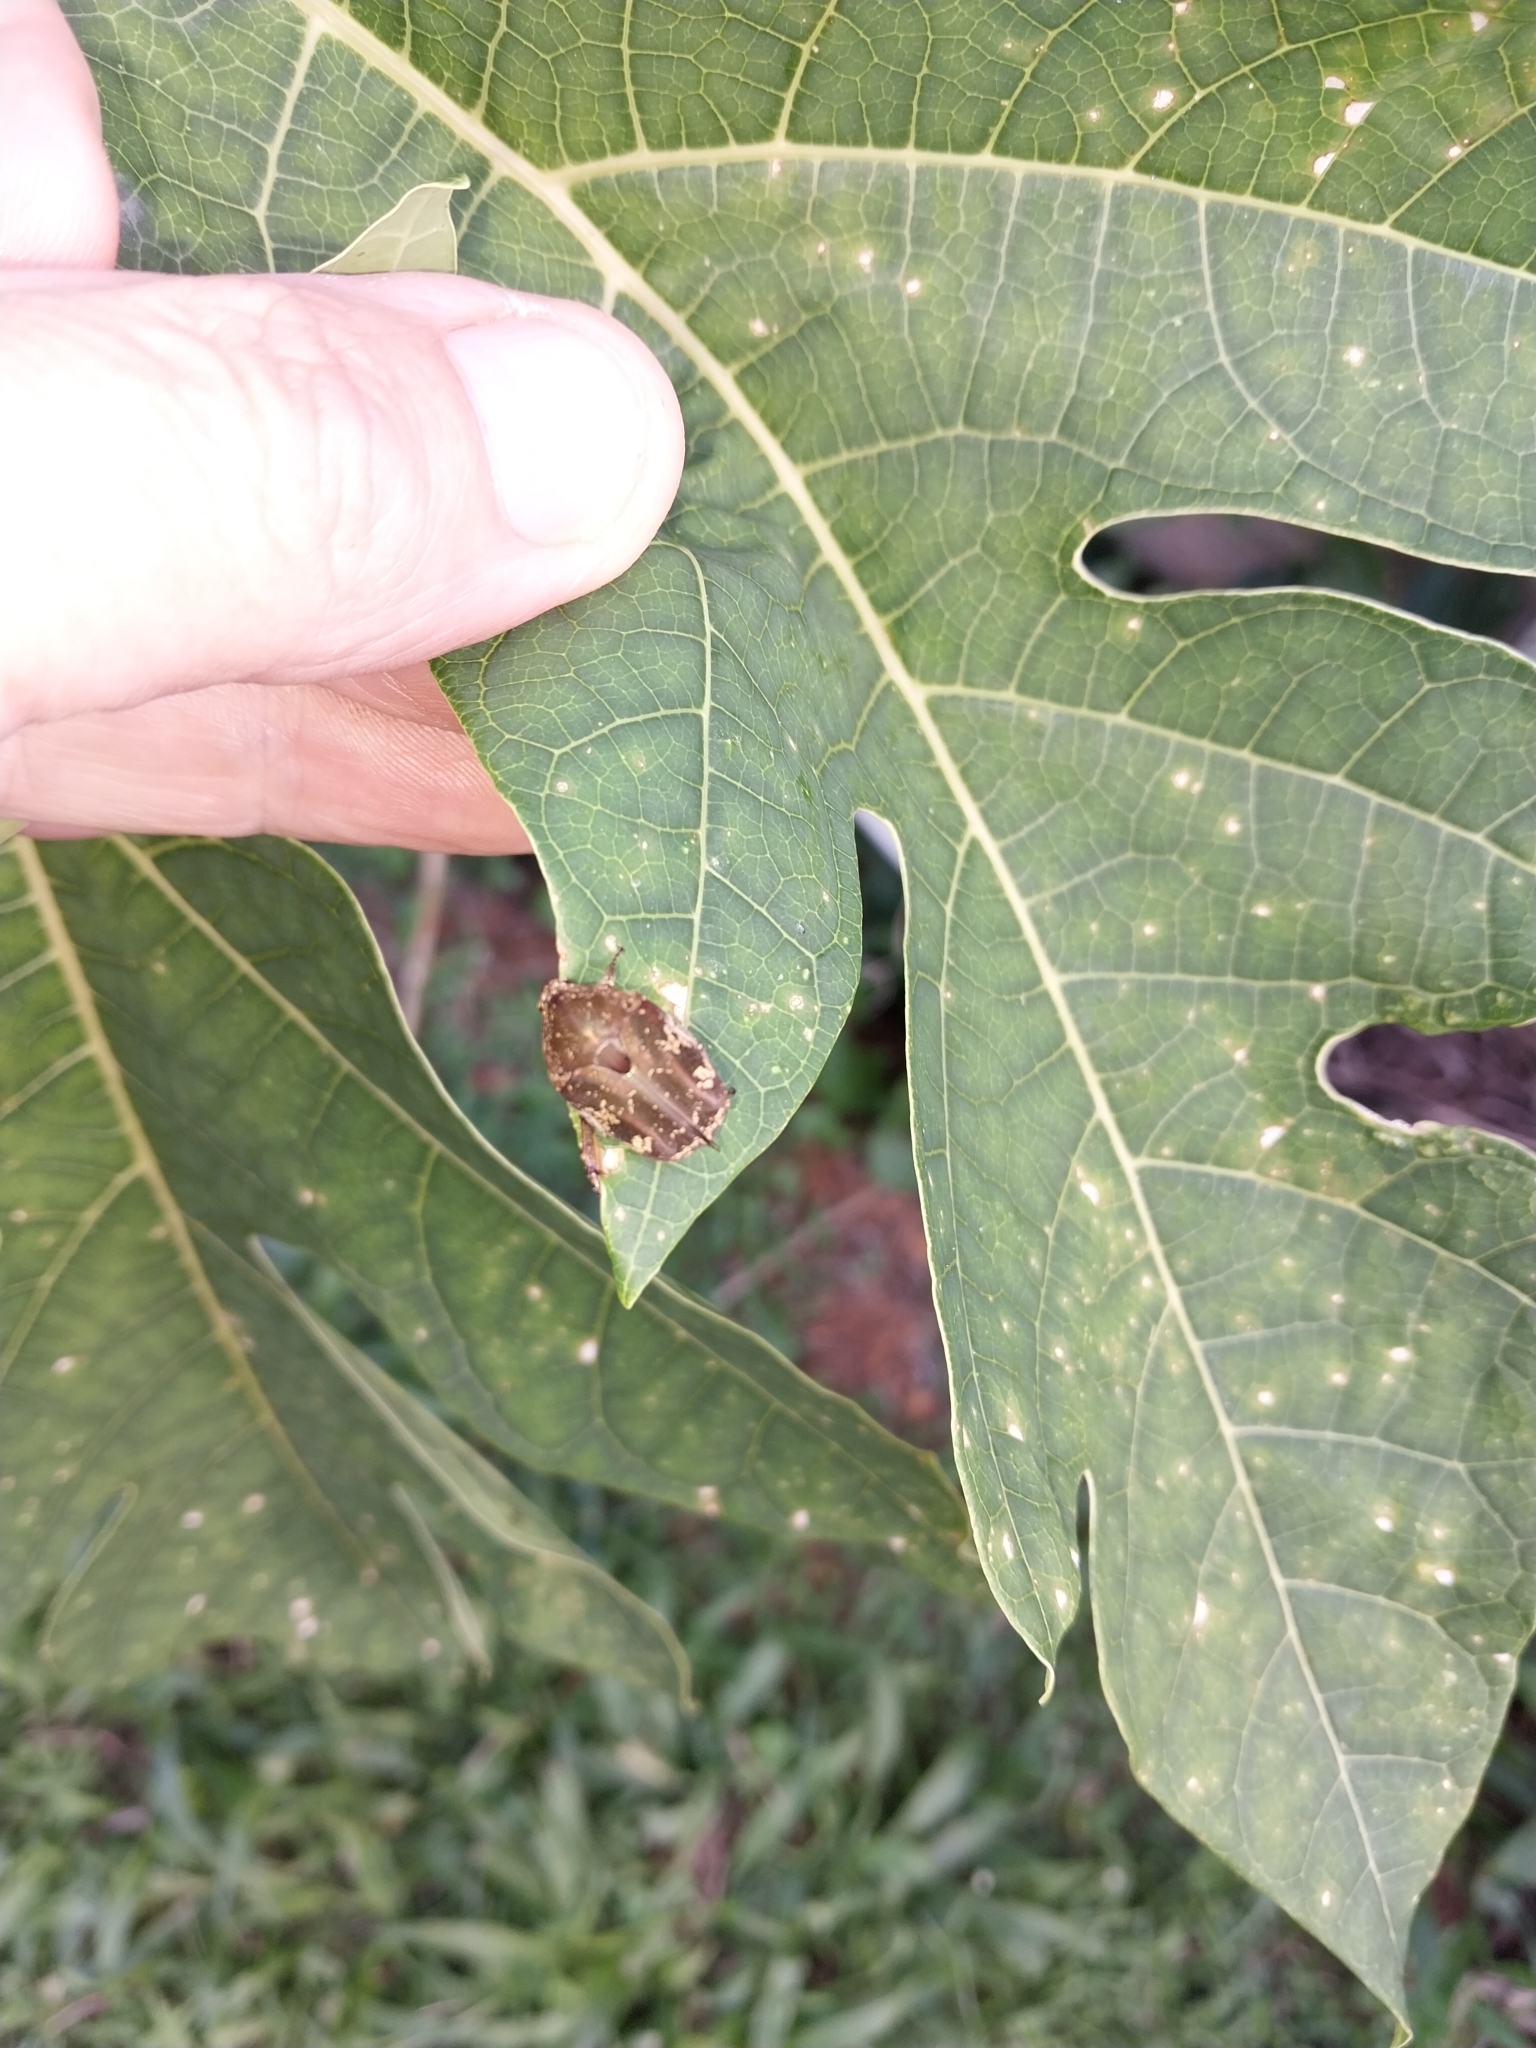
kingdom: Animalia
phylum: Arthropoda
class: Insecta
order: Coleoptera
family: Scarabaeidae
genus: Protaetia
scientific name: Protaetia fusca
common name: Mango flower beetle
